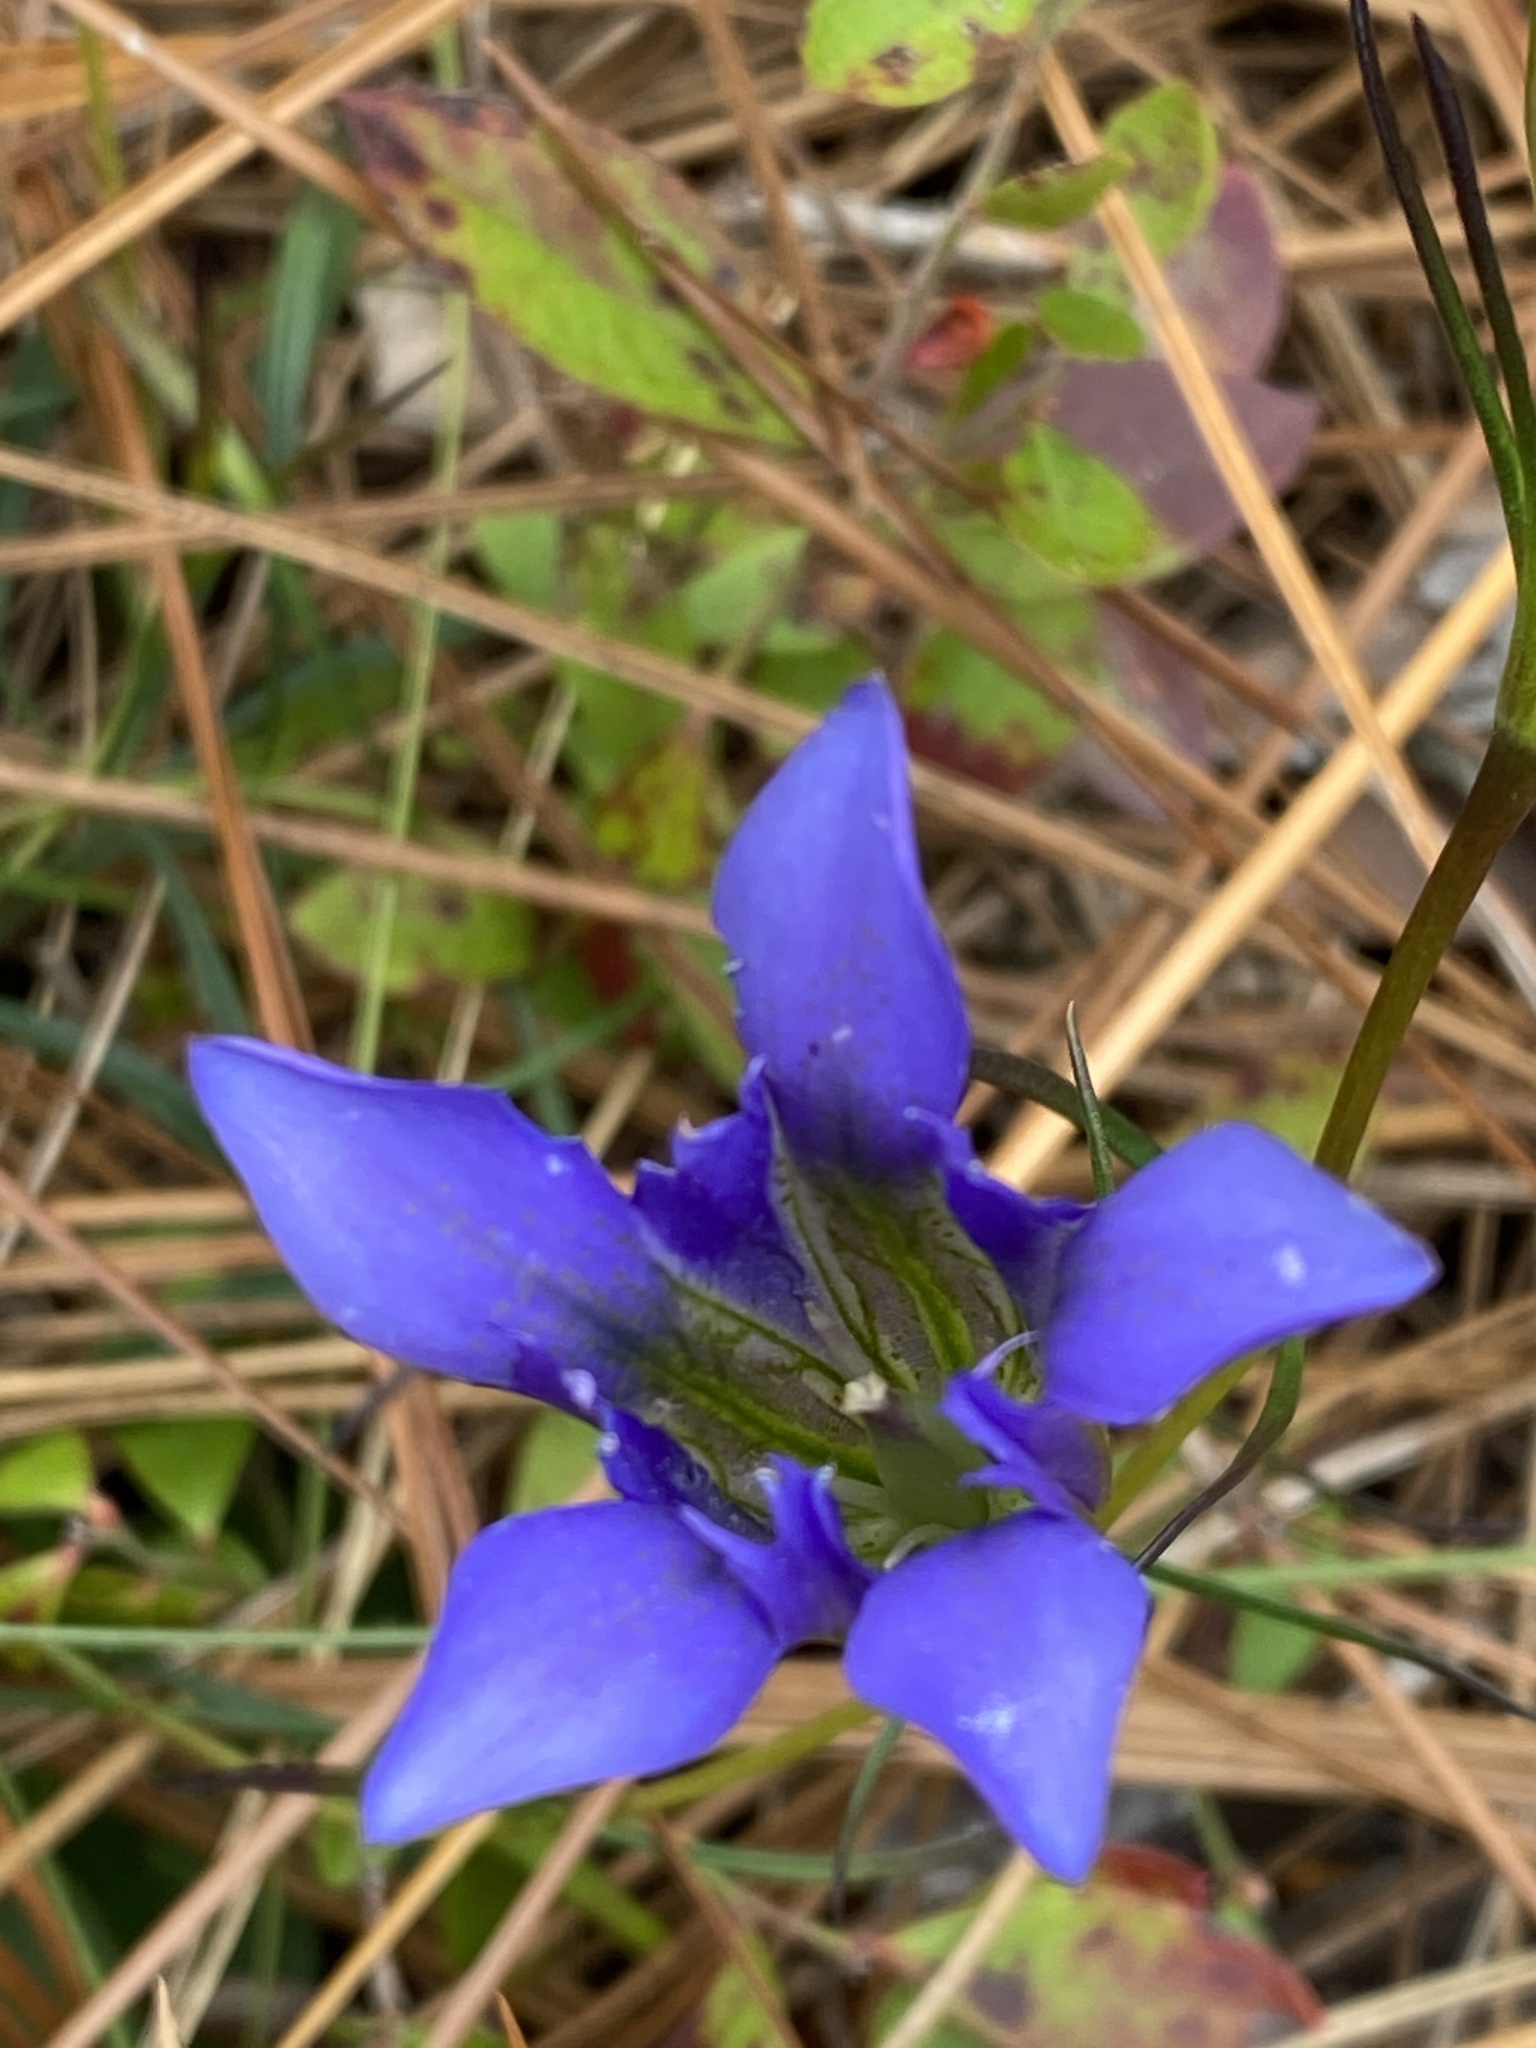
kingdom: Plantae
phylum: Tracheophyta
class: Magnoliopsida
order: Gentianales
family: Gentianaceae
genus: Gentiana
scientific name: Gentiana autumnalis
